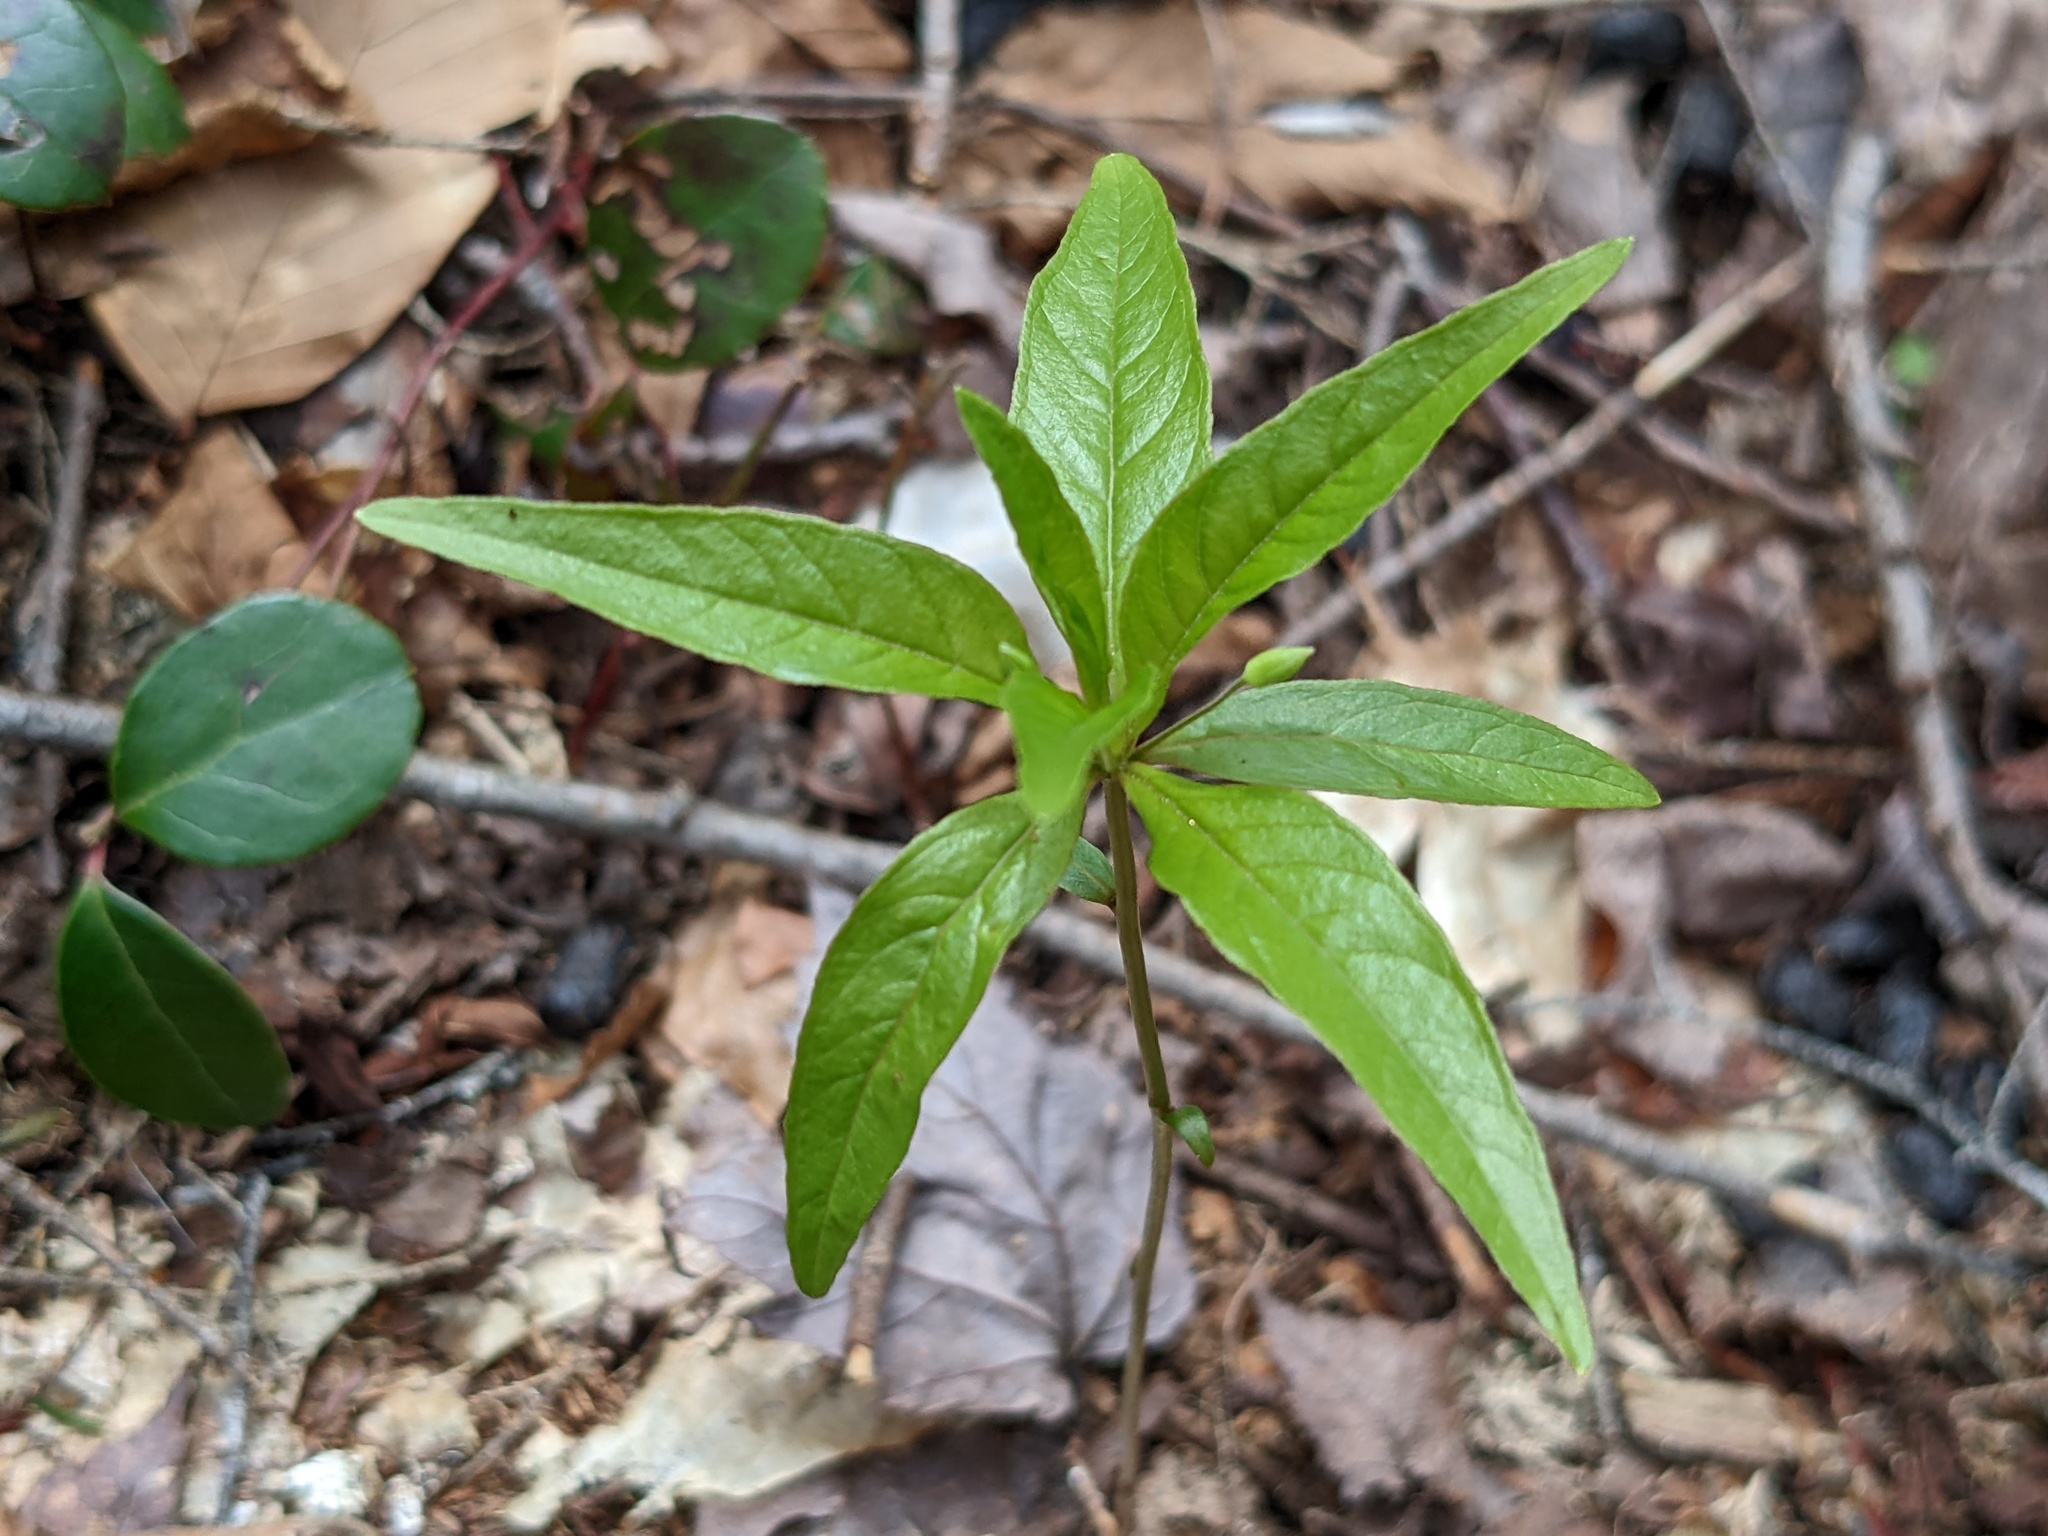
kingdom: Plantae
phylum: Tracheophyta
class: Magnoliopsida
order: Ericales
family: Primulaceae
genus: Lysimachia
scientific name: Lysimachia borealis
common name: American starflower
